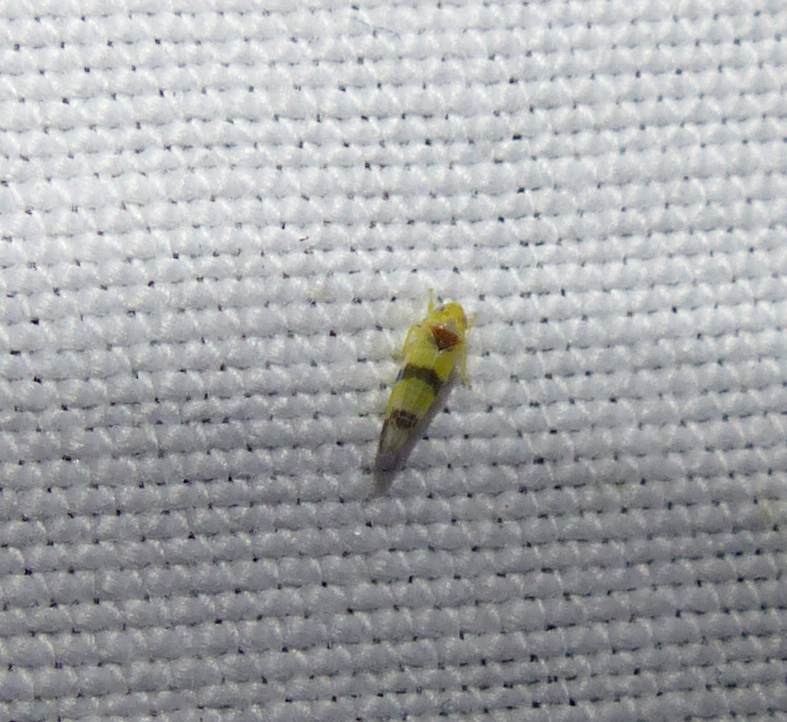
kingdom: Animalia
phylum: Arthropoda
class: Insecta
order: Hemiptera
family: Cicadellidae
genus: Empoa
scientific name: Empoa apicata
